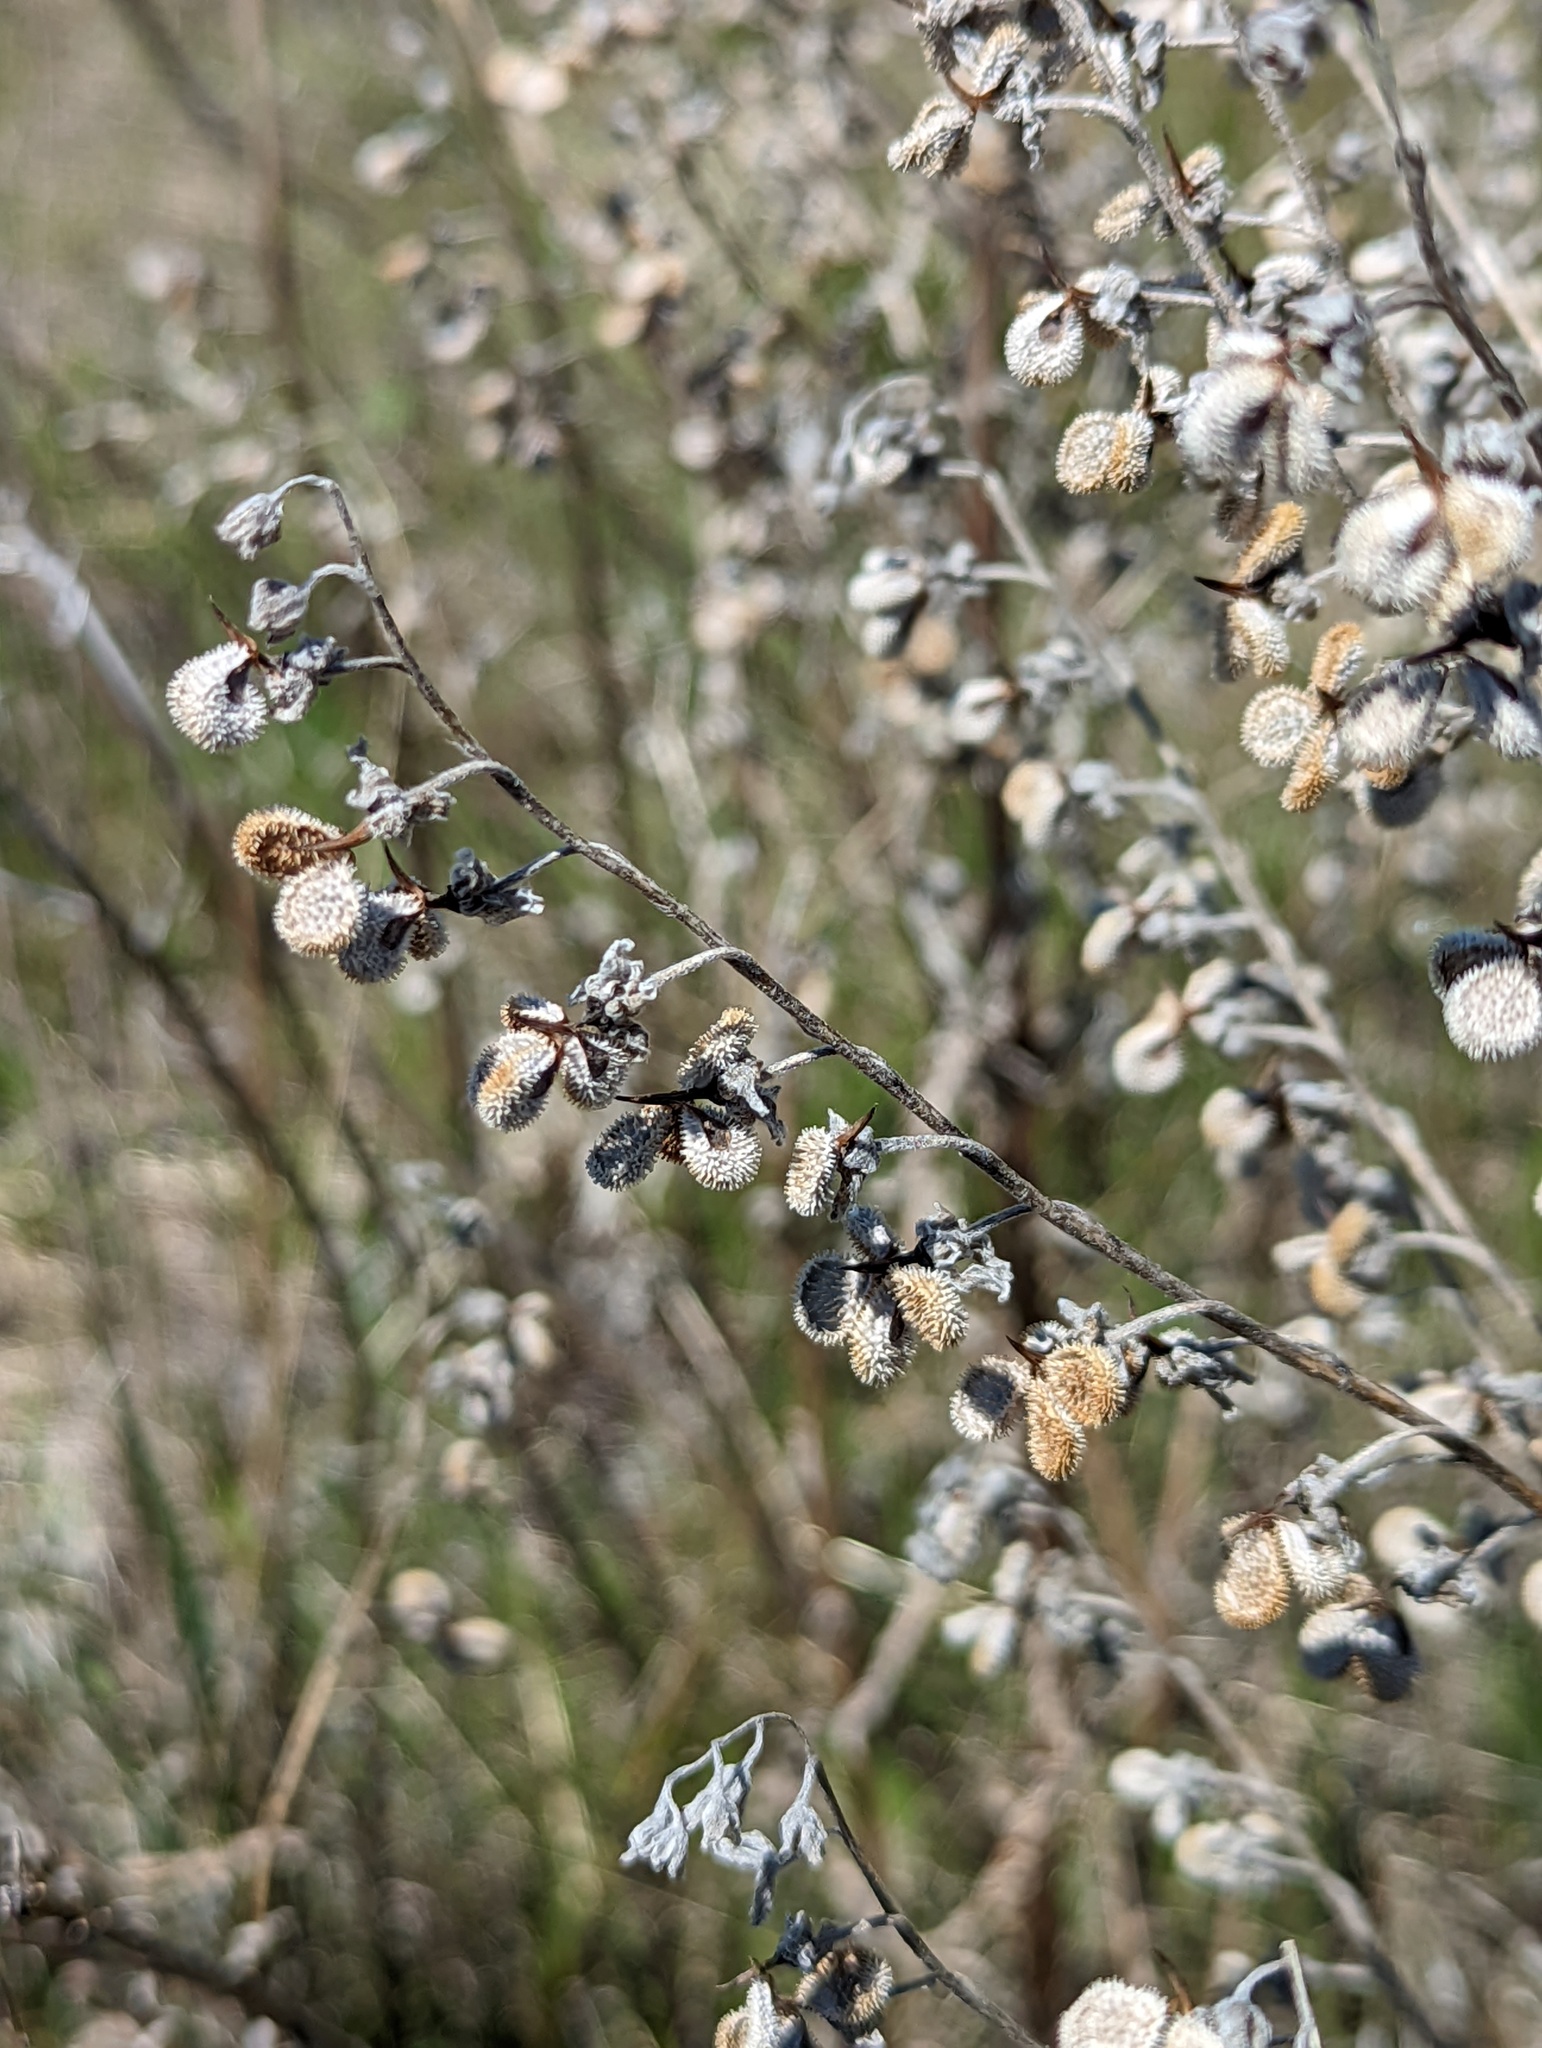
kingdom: Plantae
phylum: Tracheophyta
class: Magnoliopsida
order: Boraginales
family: Boraginaceae
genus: Cynoglossum
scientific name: Cynoglossum officinale
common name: Hound's-tongue
